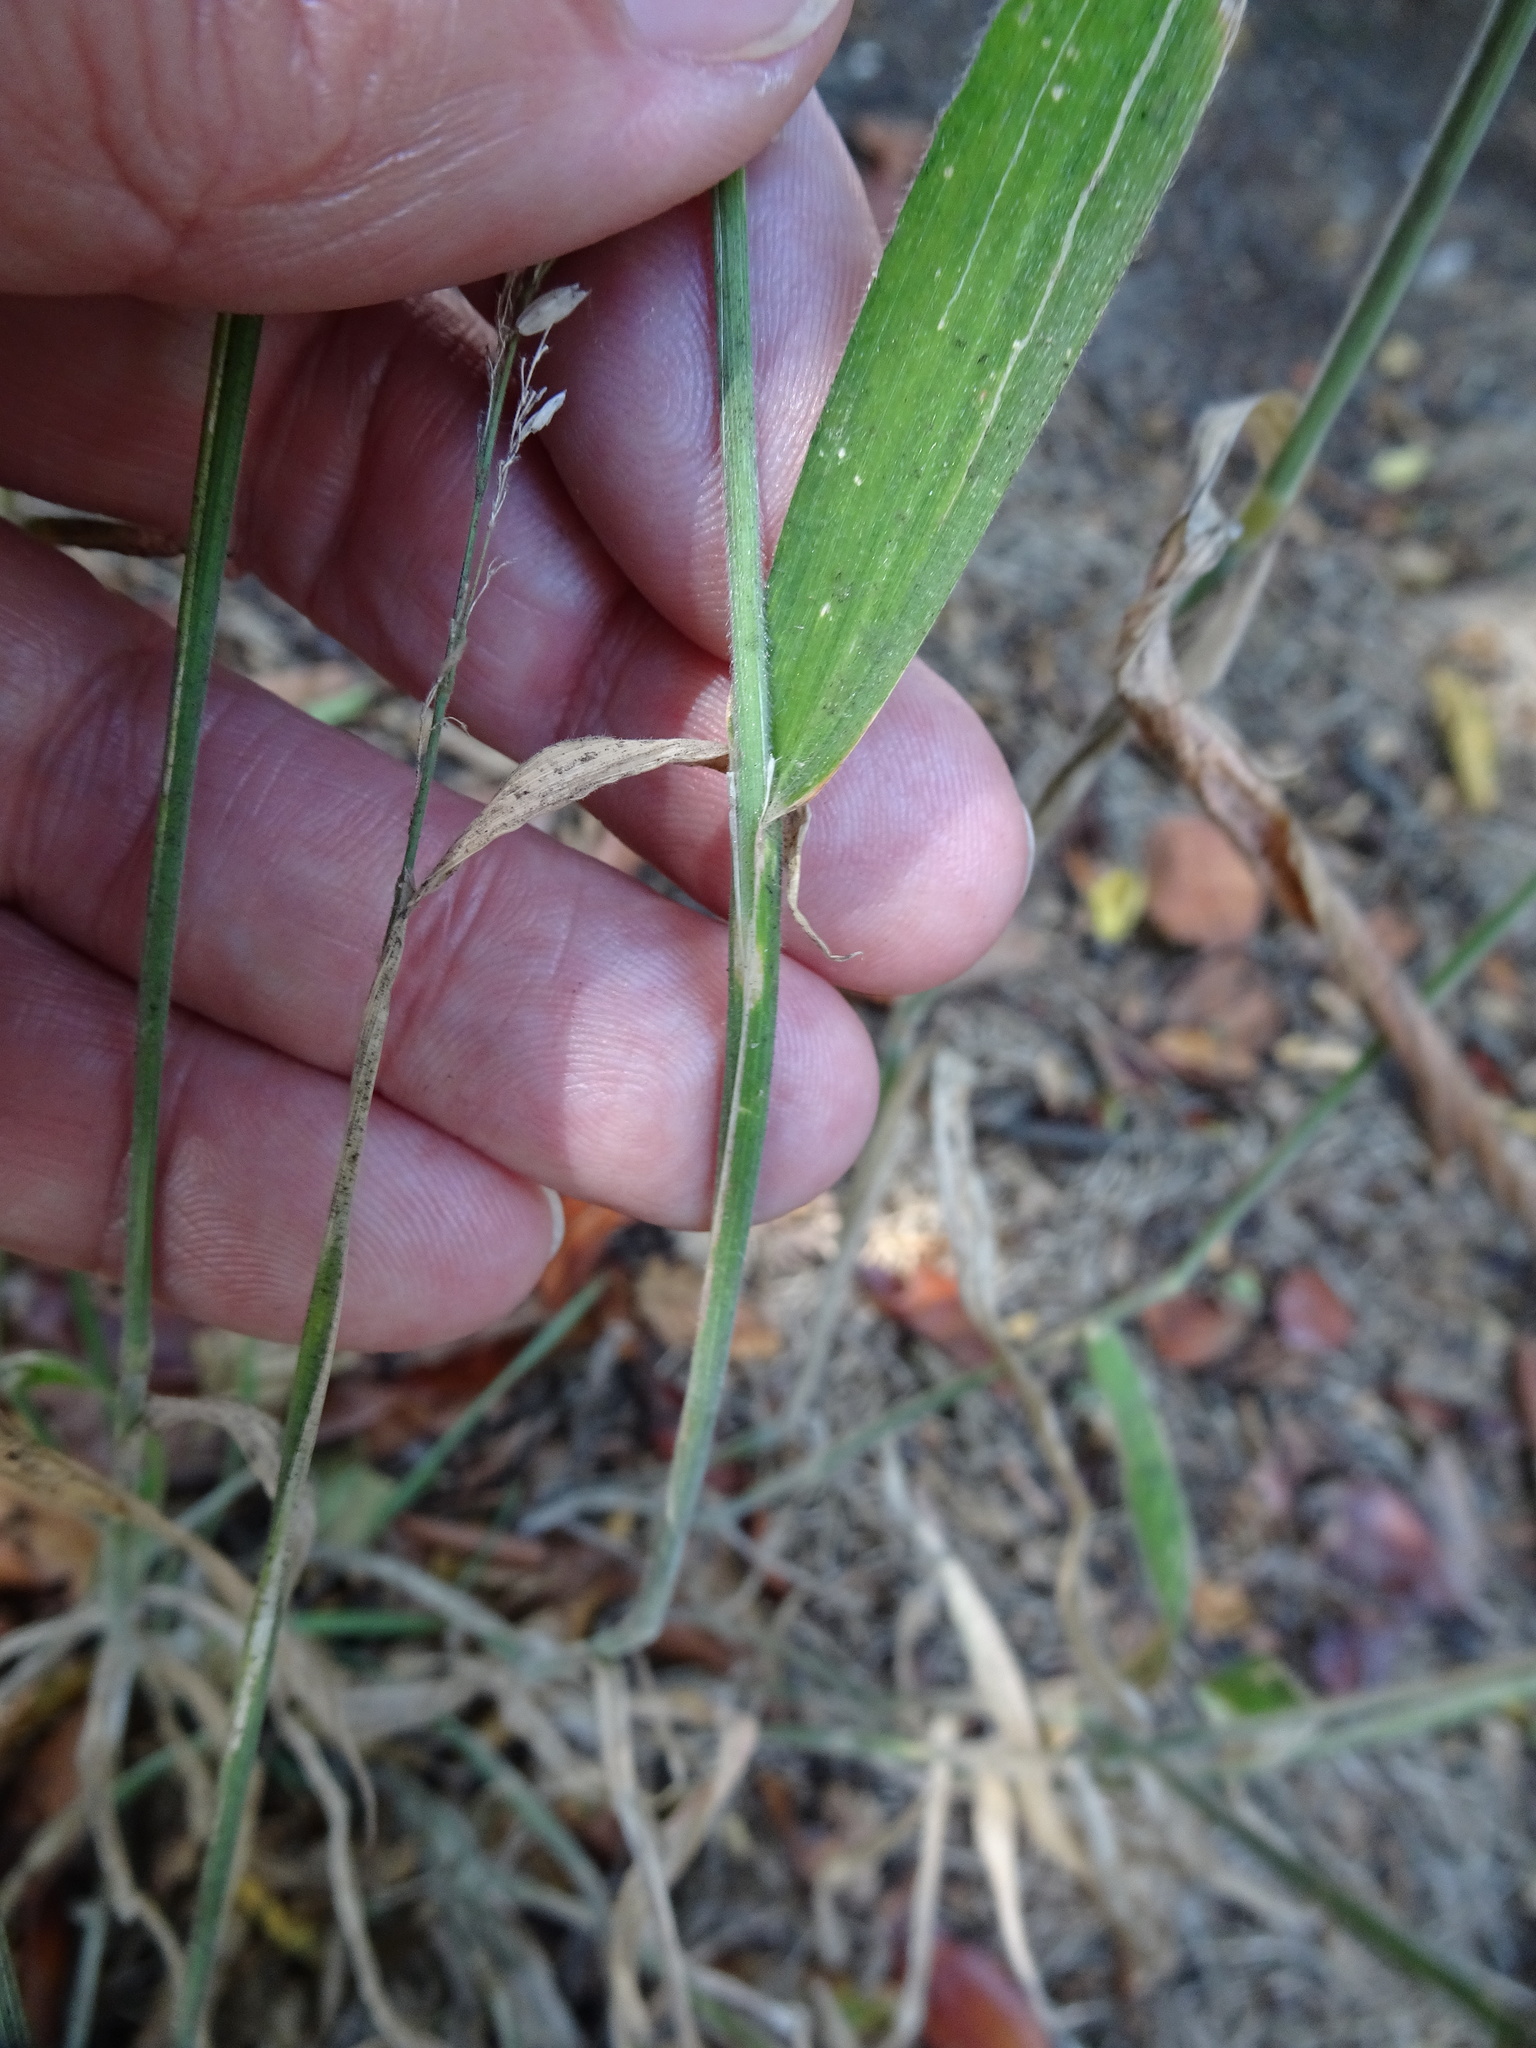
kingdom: Plantae
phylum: Tracheophyta
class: Liliopsida
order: Poales
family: Poaceae
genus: Holcus
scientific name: Holcus lanatus
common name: Yorkshire-fog
